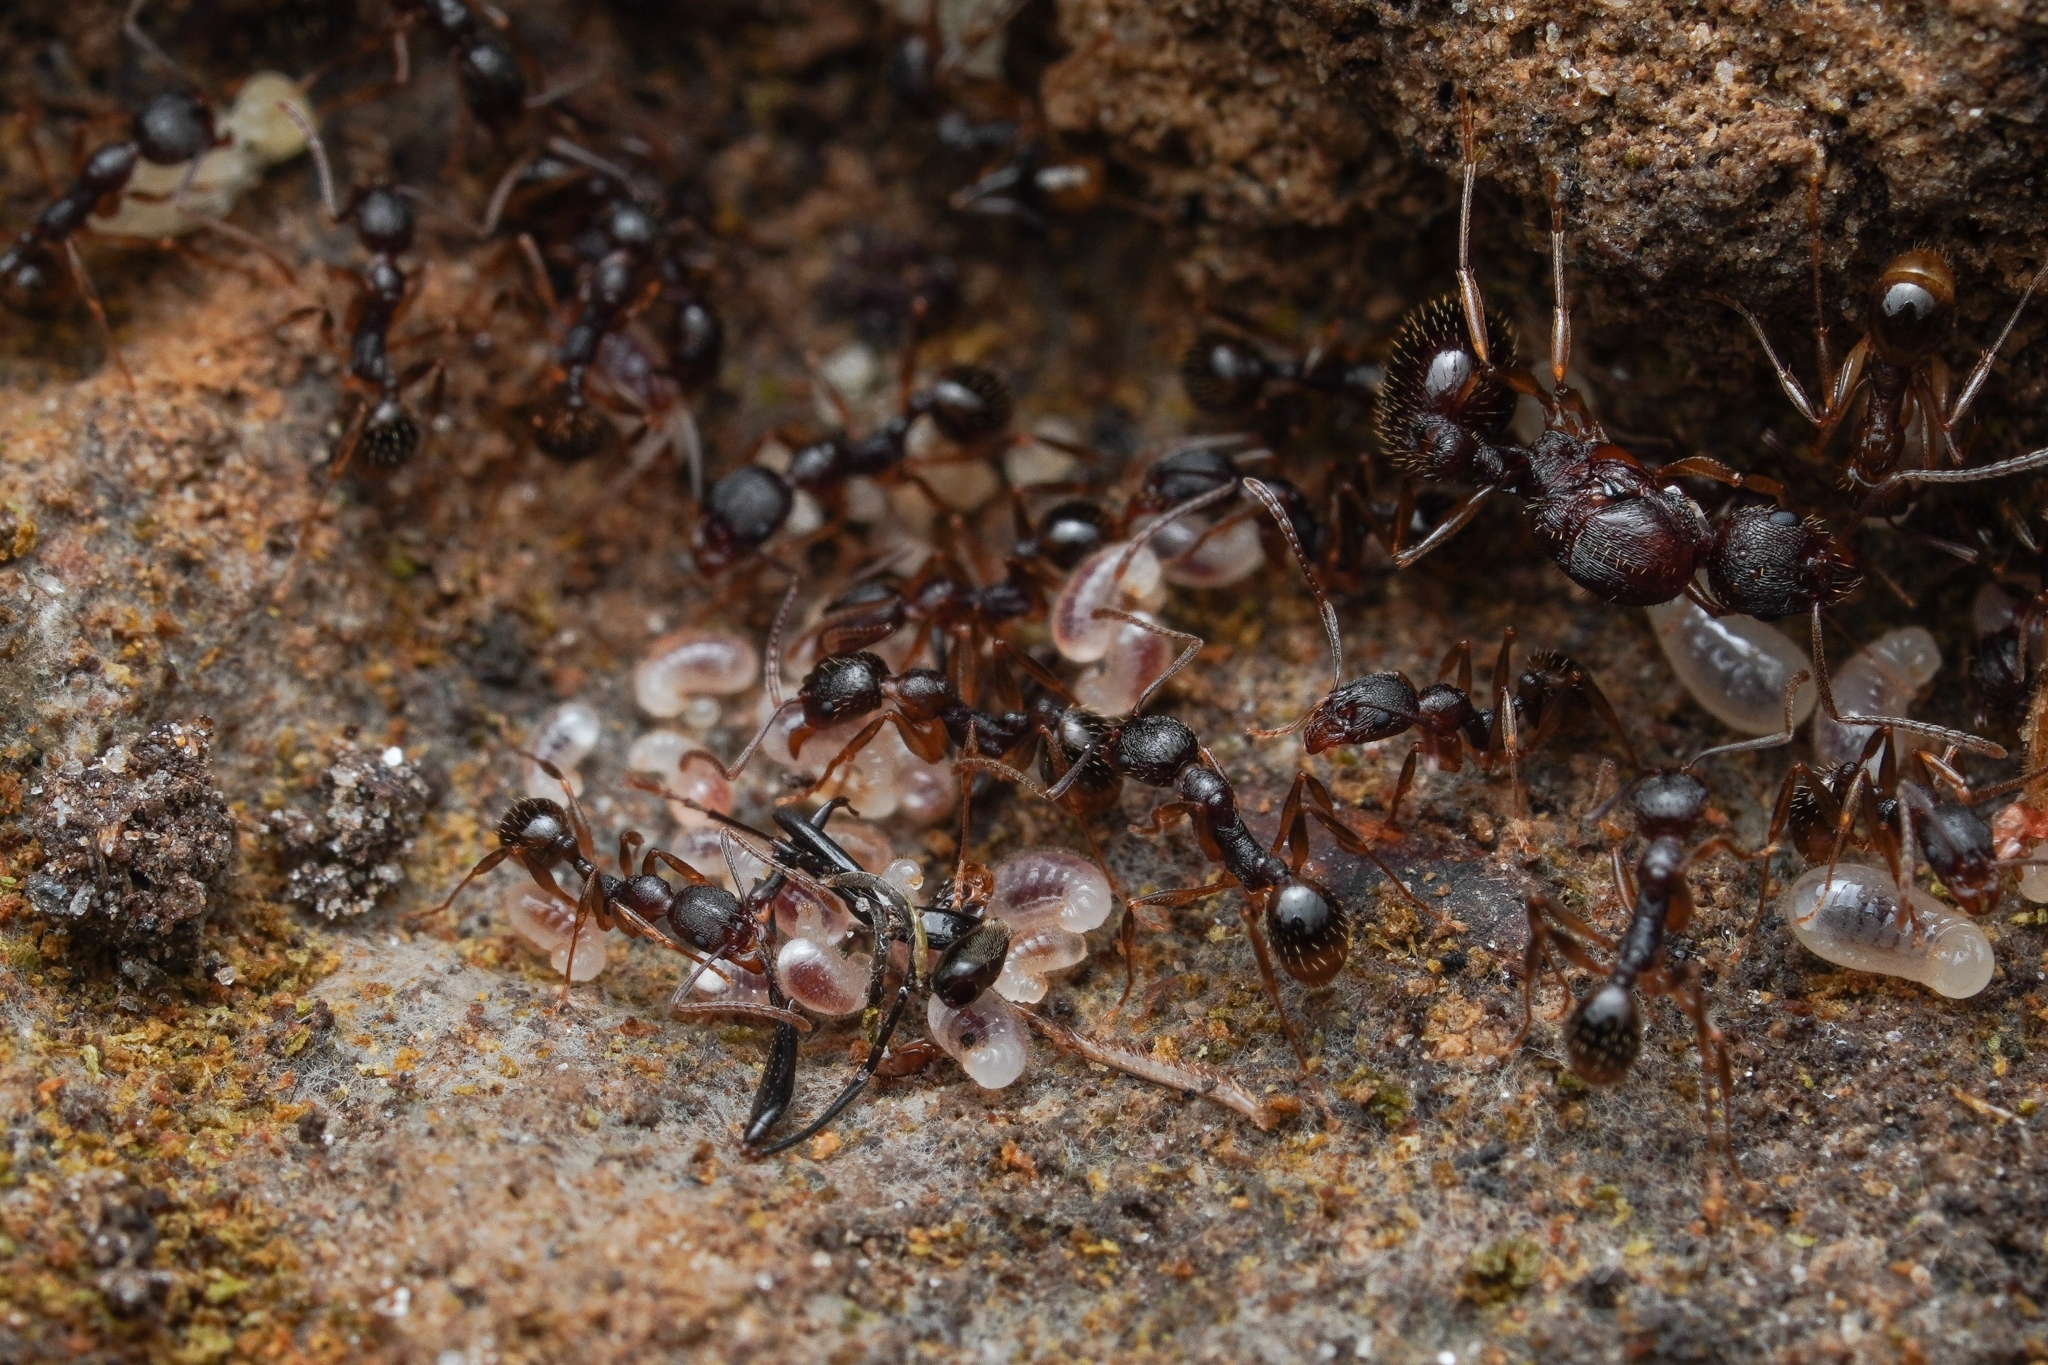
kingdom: Animalia
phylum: Arthropoda
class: Insecta
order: Hymenoptera
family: Formicidae
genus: Aphaenogaster
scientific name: Aphaenogaster rudis
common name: Winnow ant
